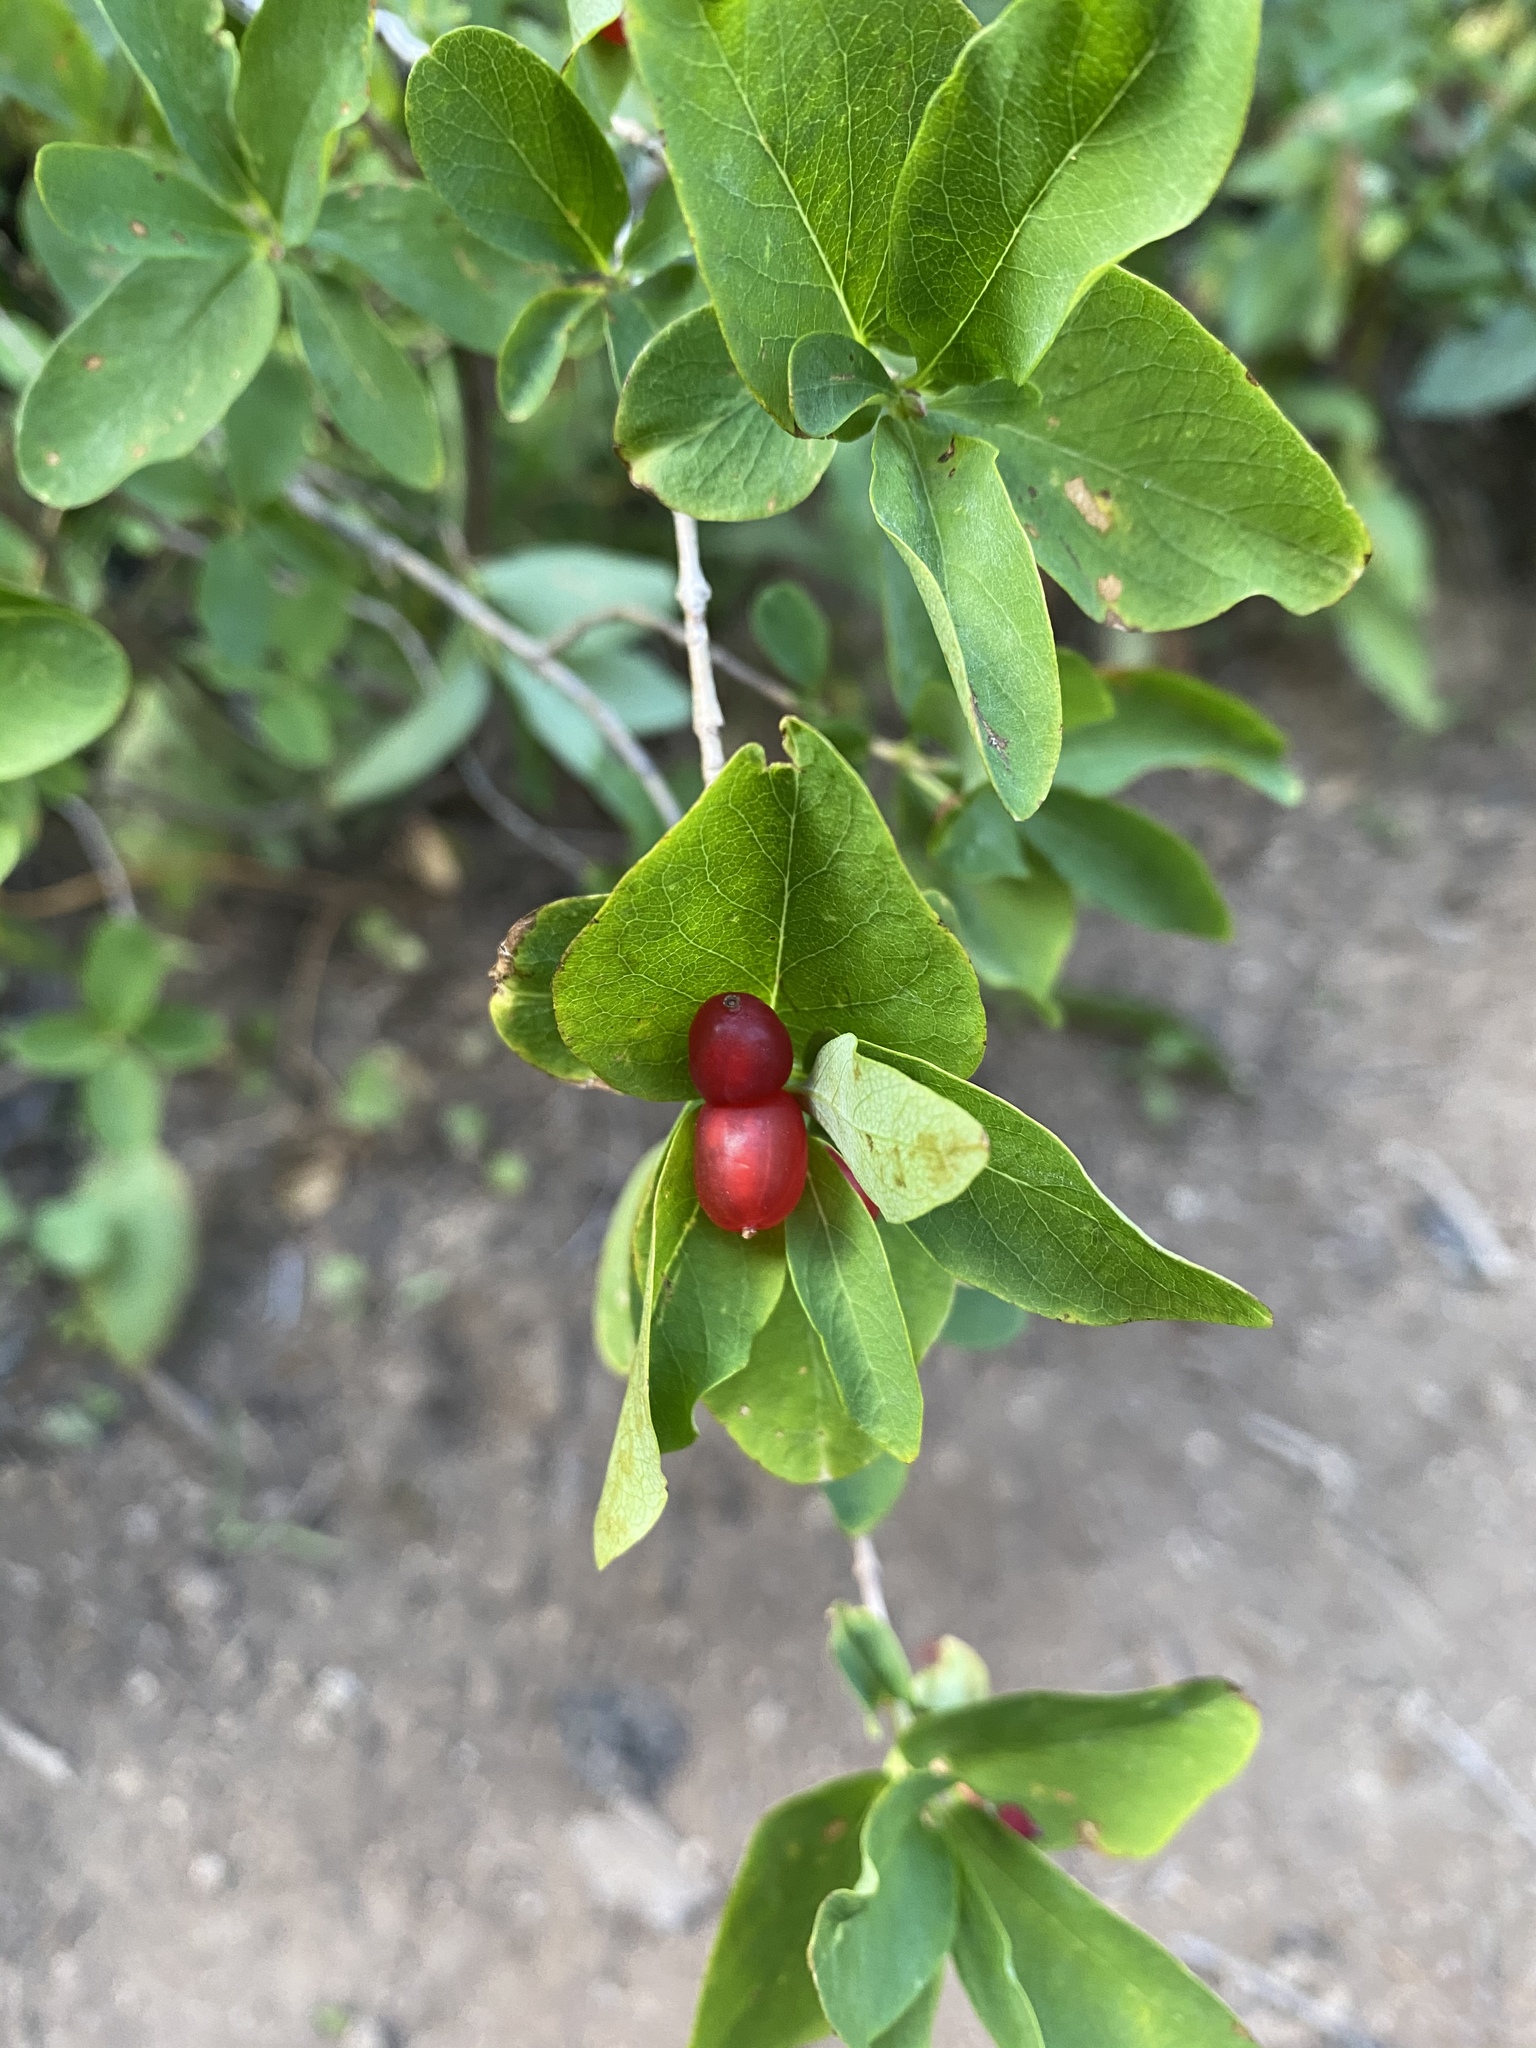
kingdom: Plantae
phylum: Tracheophyta
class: Magnoliopsida
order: Dipsacales
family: Caprifoliaceae
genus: Lonicera
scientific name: Lonicera utahensis
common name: Utah honeysuckle
